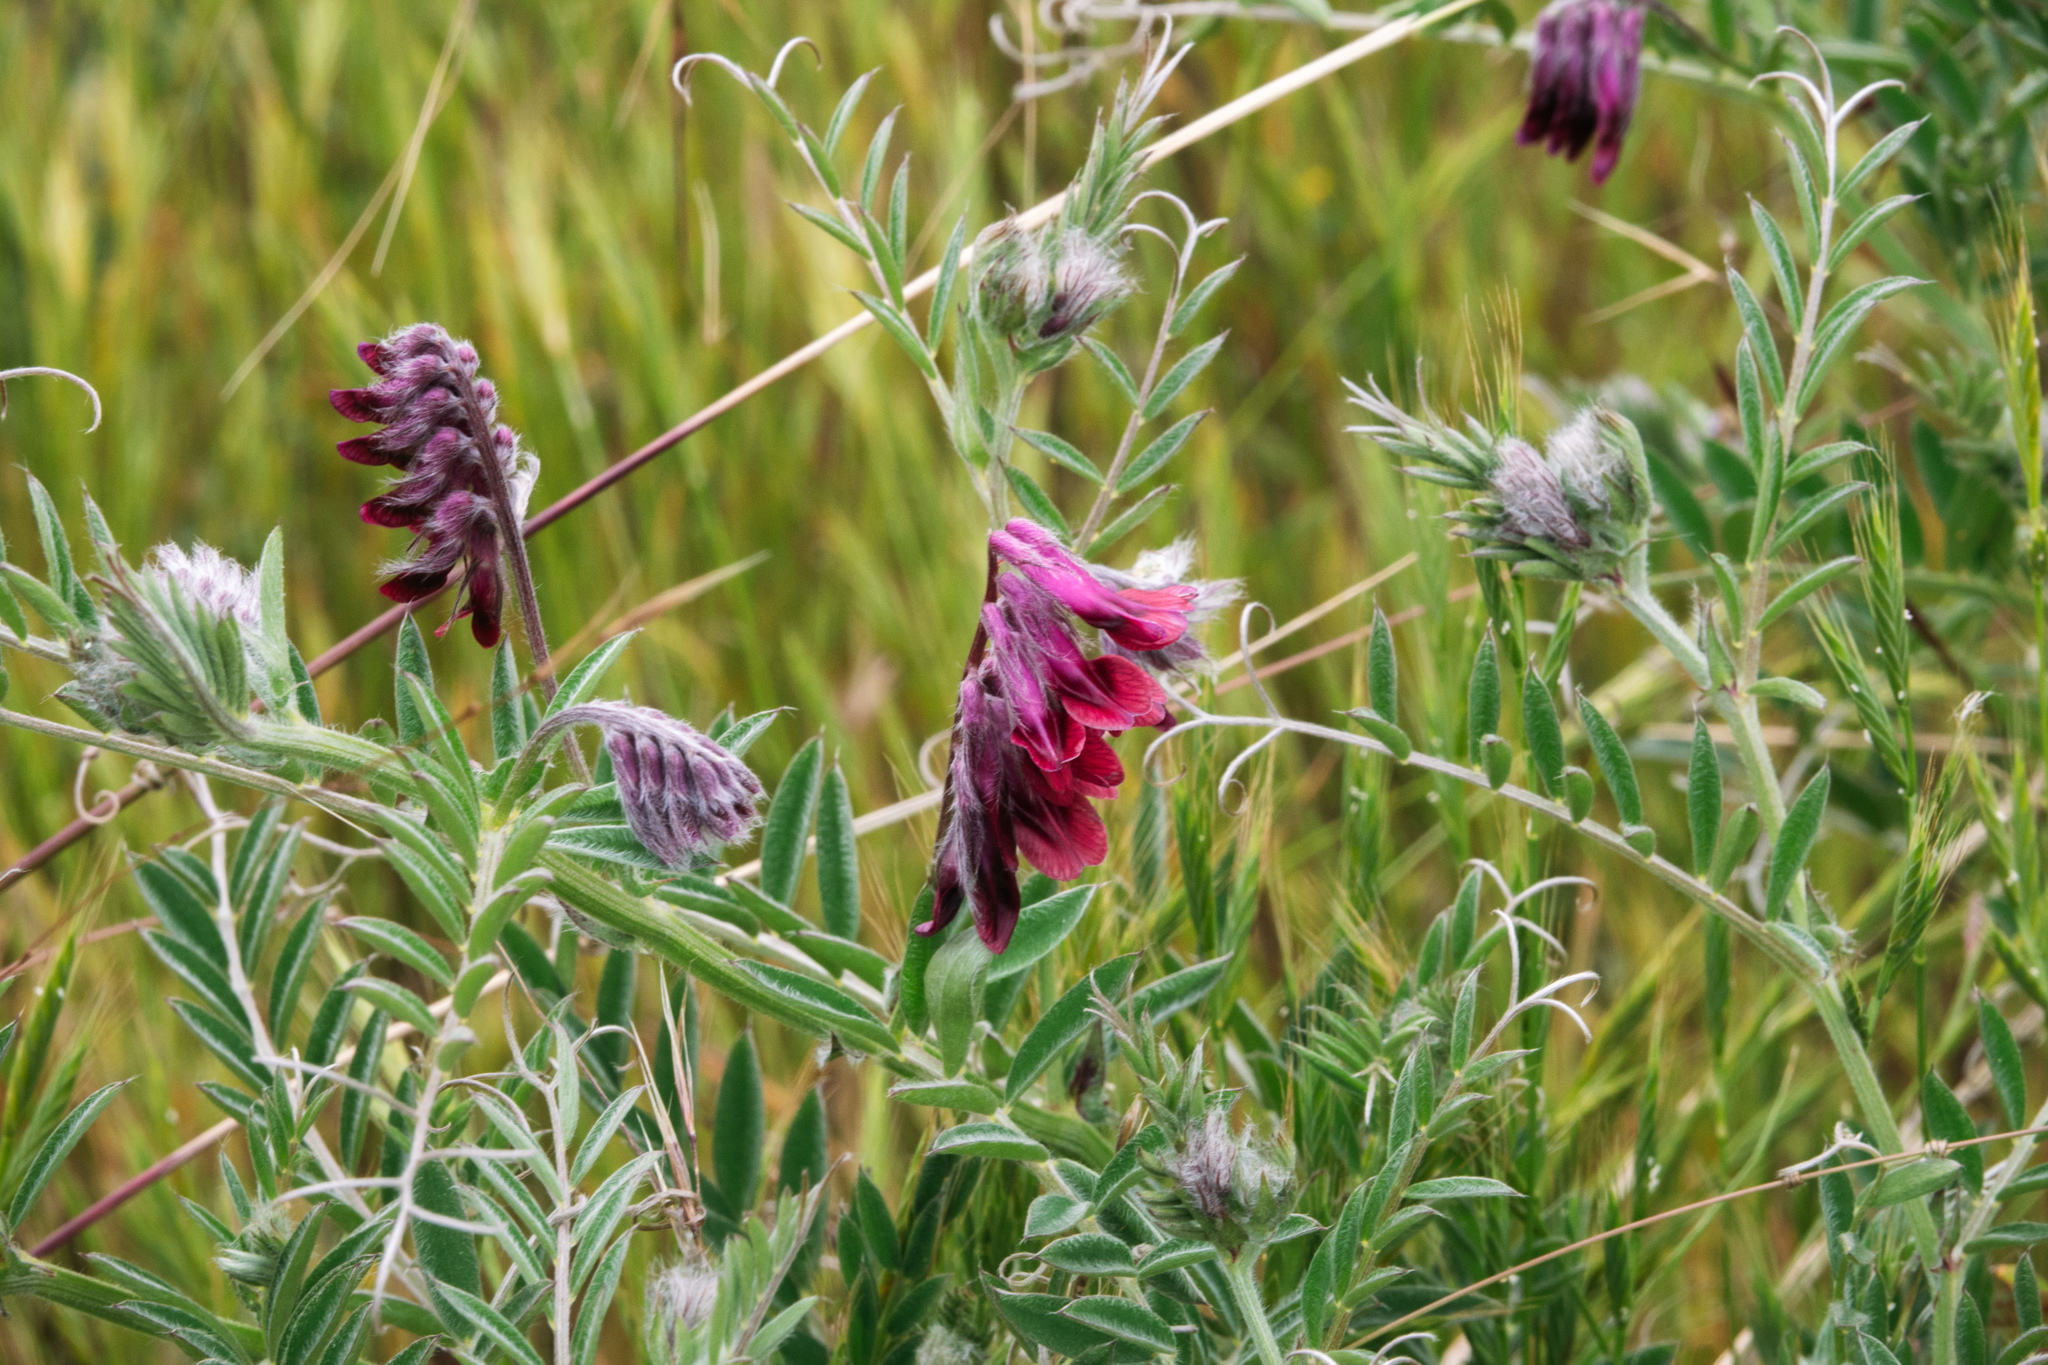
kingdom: Plantae
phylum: Tracheophyta
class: Magnoliopsida
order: Fabales
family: Fabaceae
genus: Vicia
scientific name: Vicia benghalensis
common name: Purple vetch
